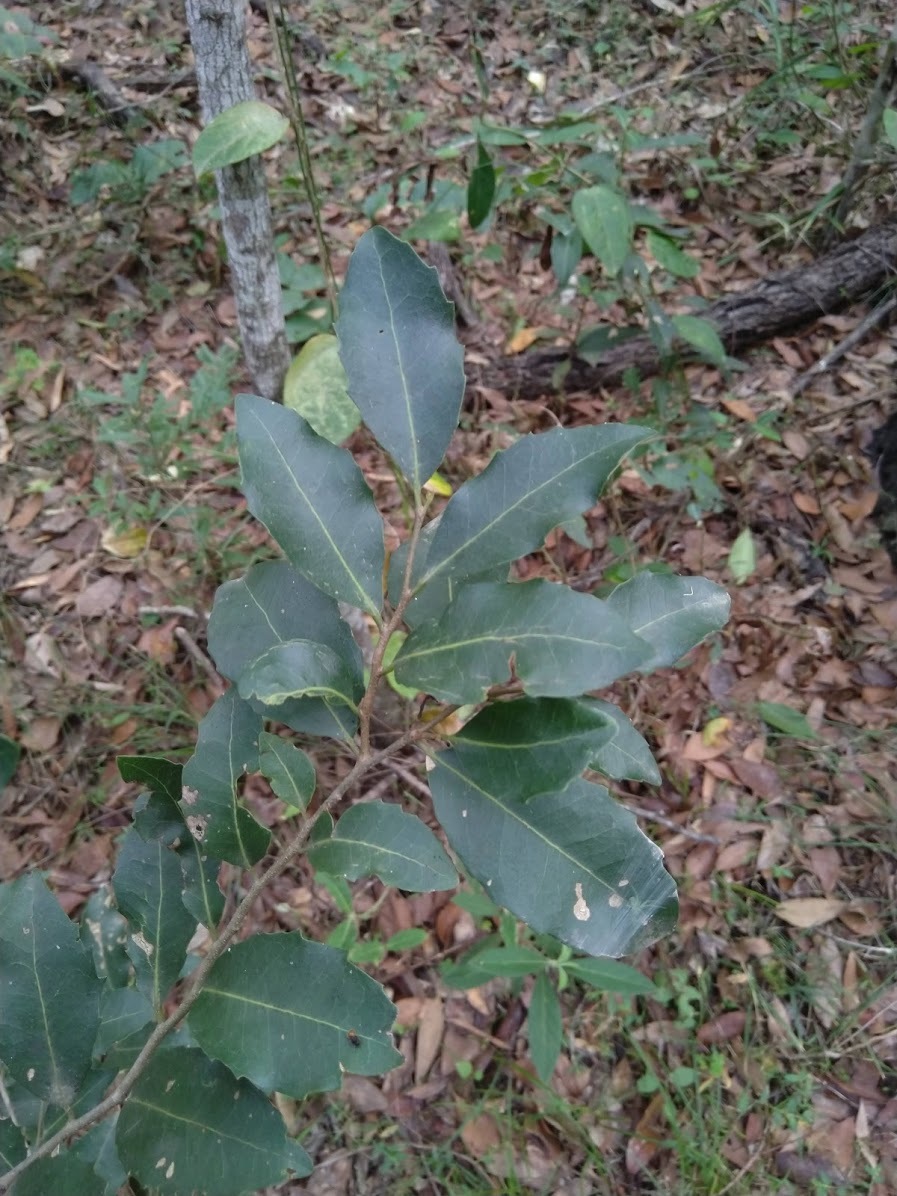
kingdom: Plantae
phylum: Tracheophyta
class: Magnoliopsida
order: Malpighiales
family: Putranjivaceae
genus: Drypetes
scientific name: Drypetes deplanchei
